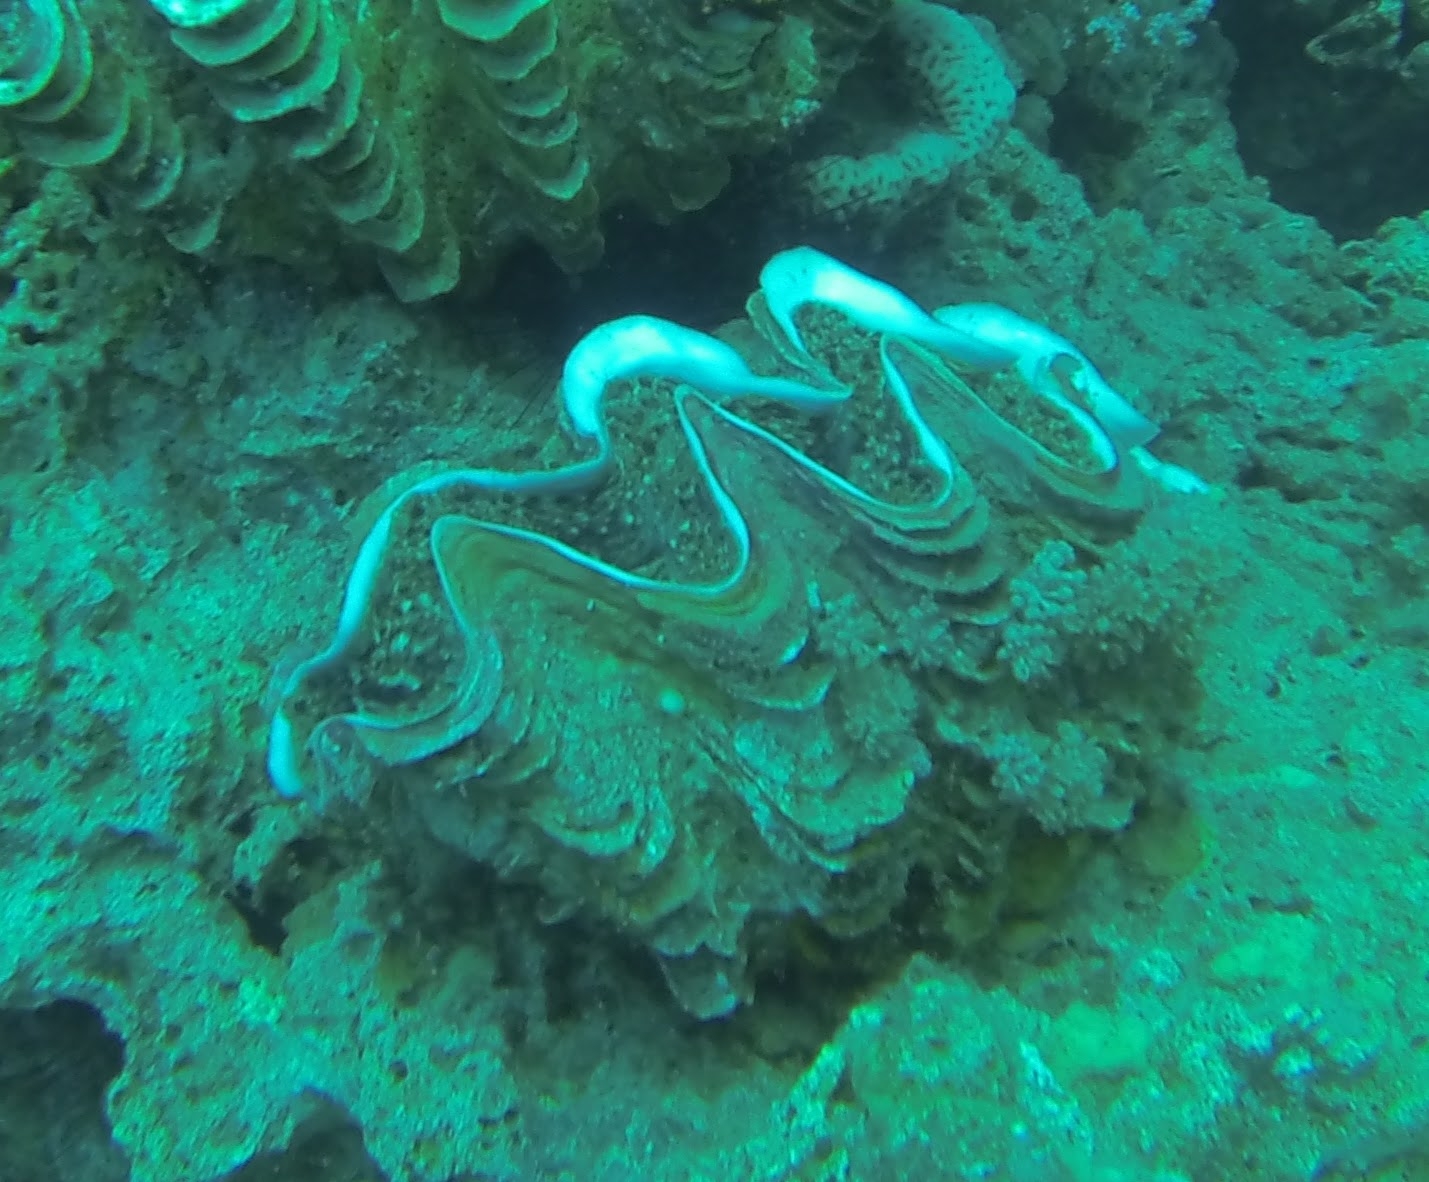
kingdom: Animalia
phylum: Mollusca
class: Bivalvia
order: Cardiida
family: Cardiidae
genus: Tridacna
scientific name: Tridacna squamosina
